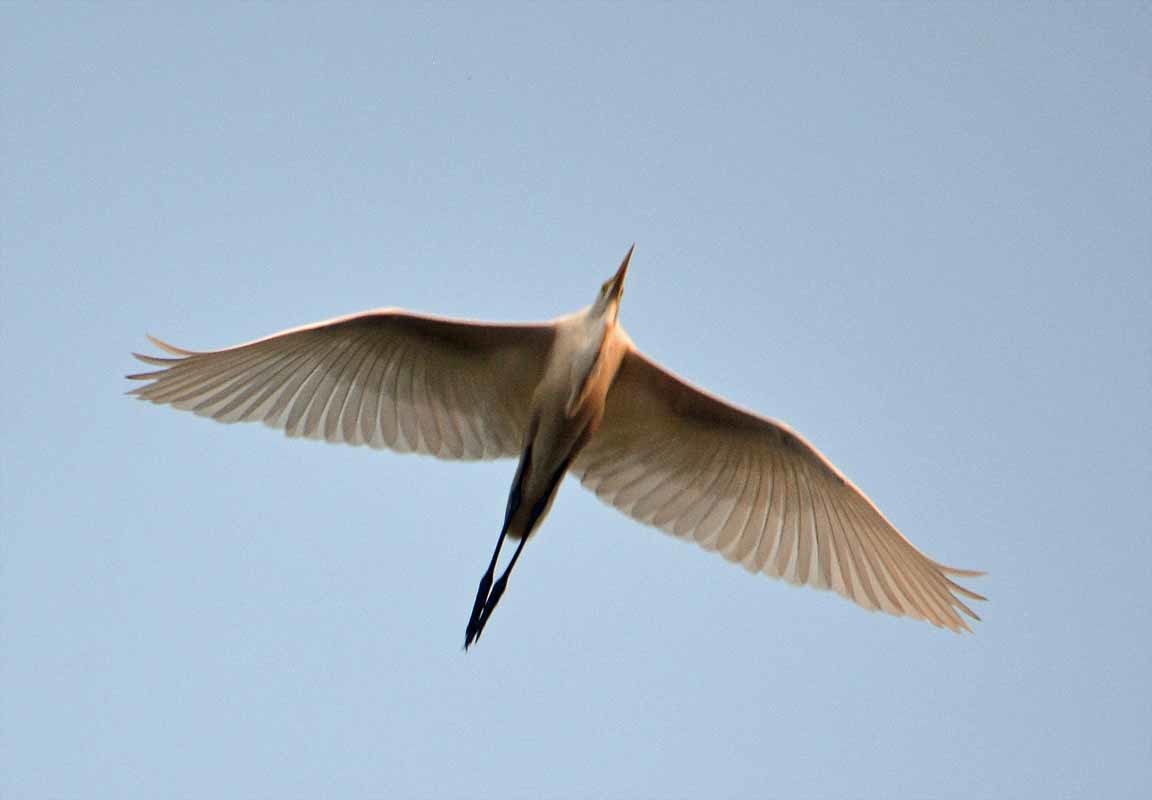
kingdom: Animalia
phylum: Chordata
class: Aves
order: Pelecaniformes
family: Ardeidae
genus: Ardea
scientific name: Ardea alba
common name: Great egret
